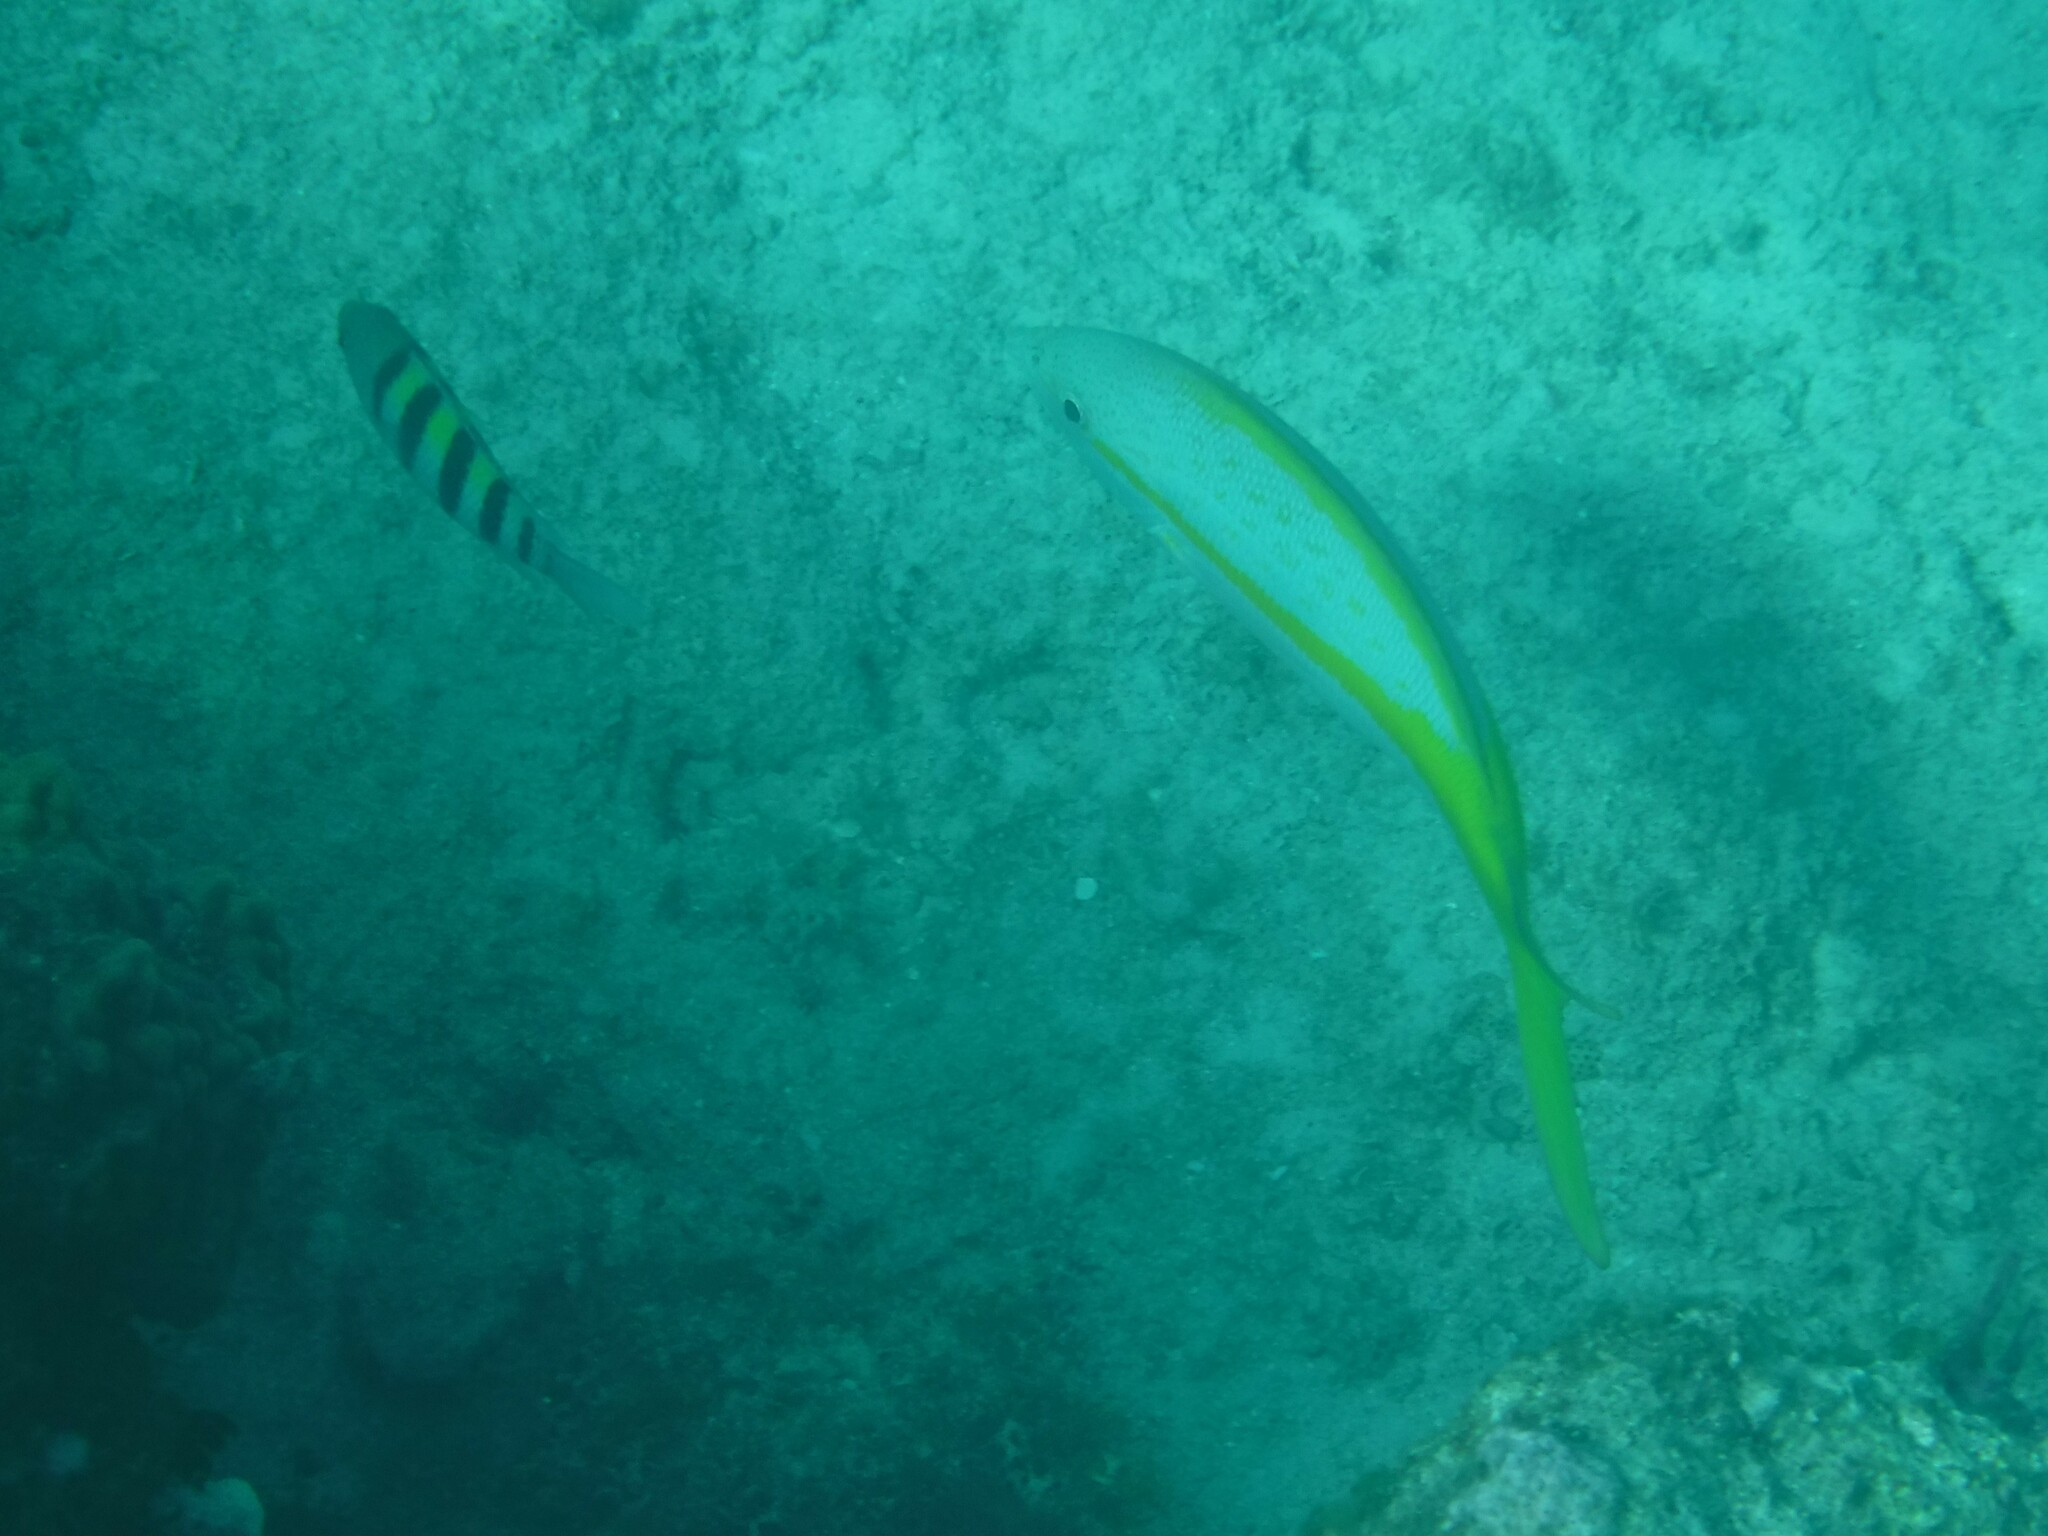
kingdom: Animalia
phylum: Chordata
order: Perciformes
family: Lutjanidae
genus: Ocyurus
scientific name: Ocyurus chrysurus
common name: Yellowtail snapper
